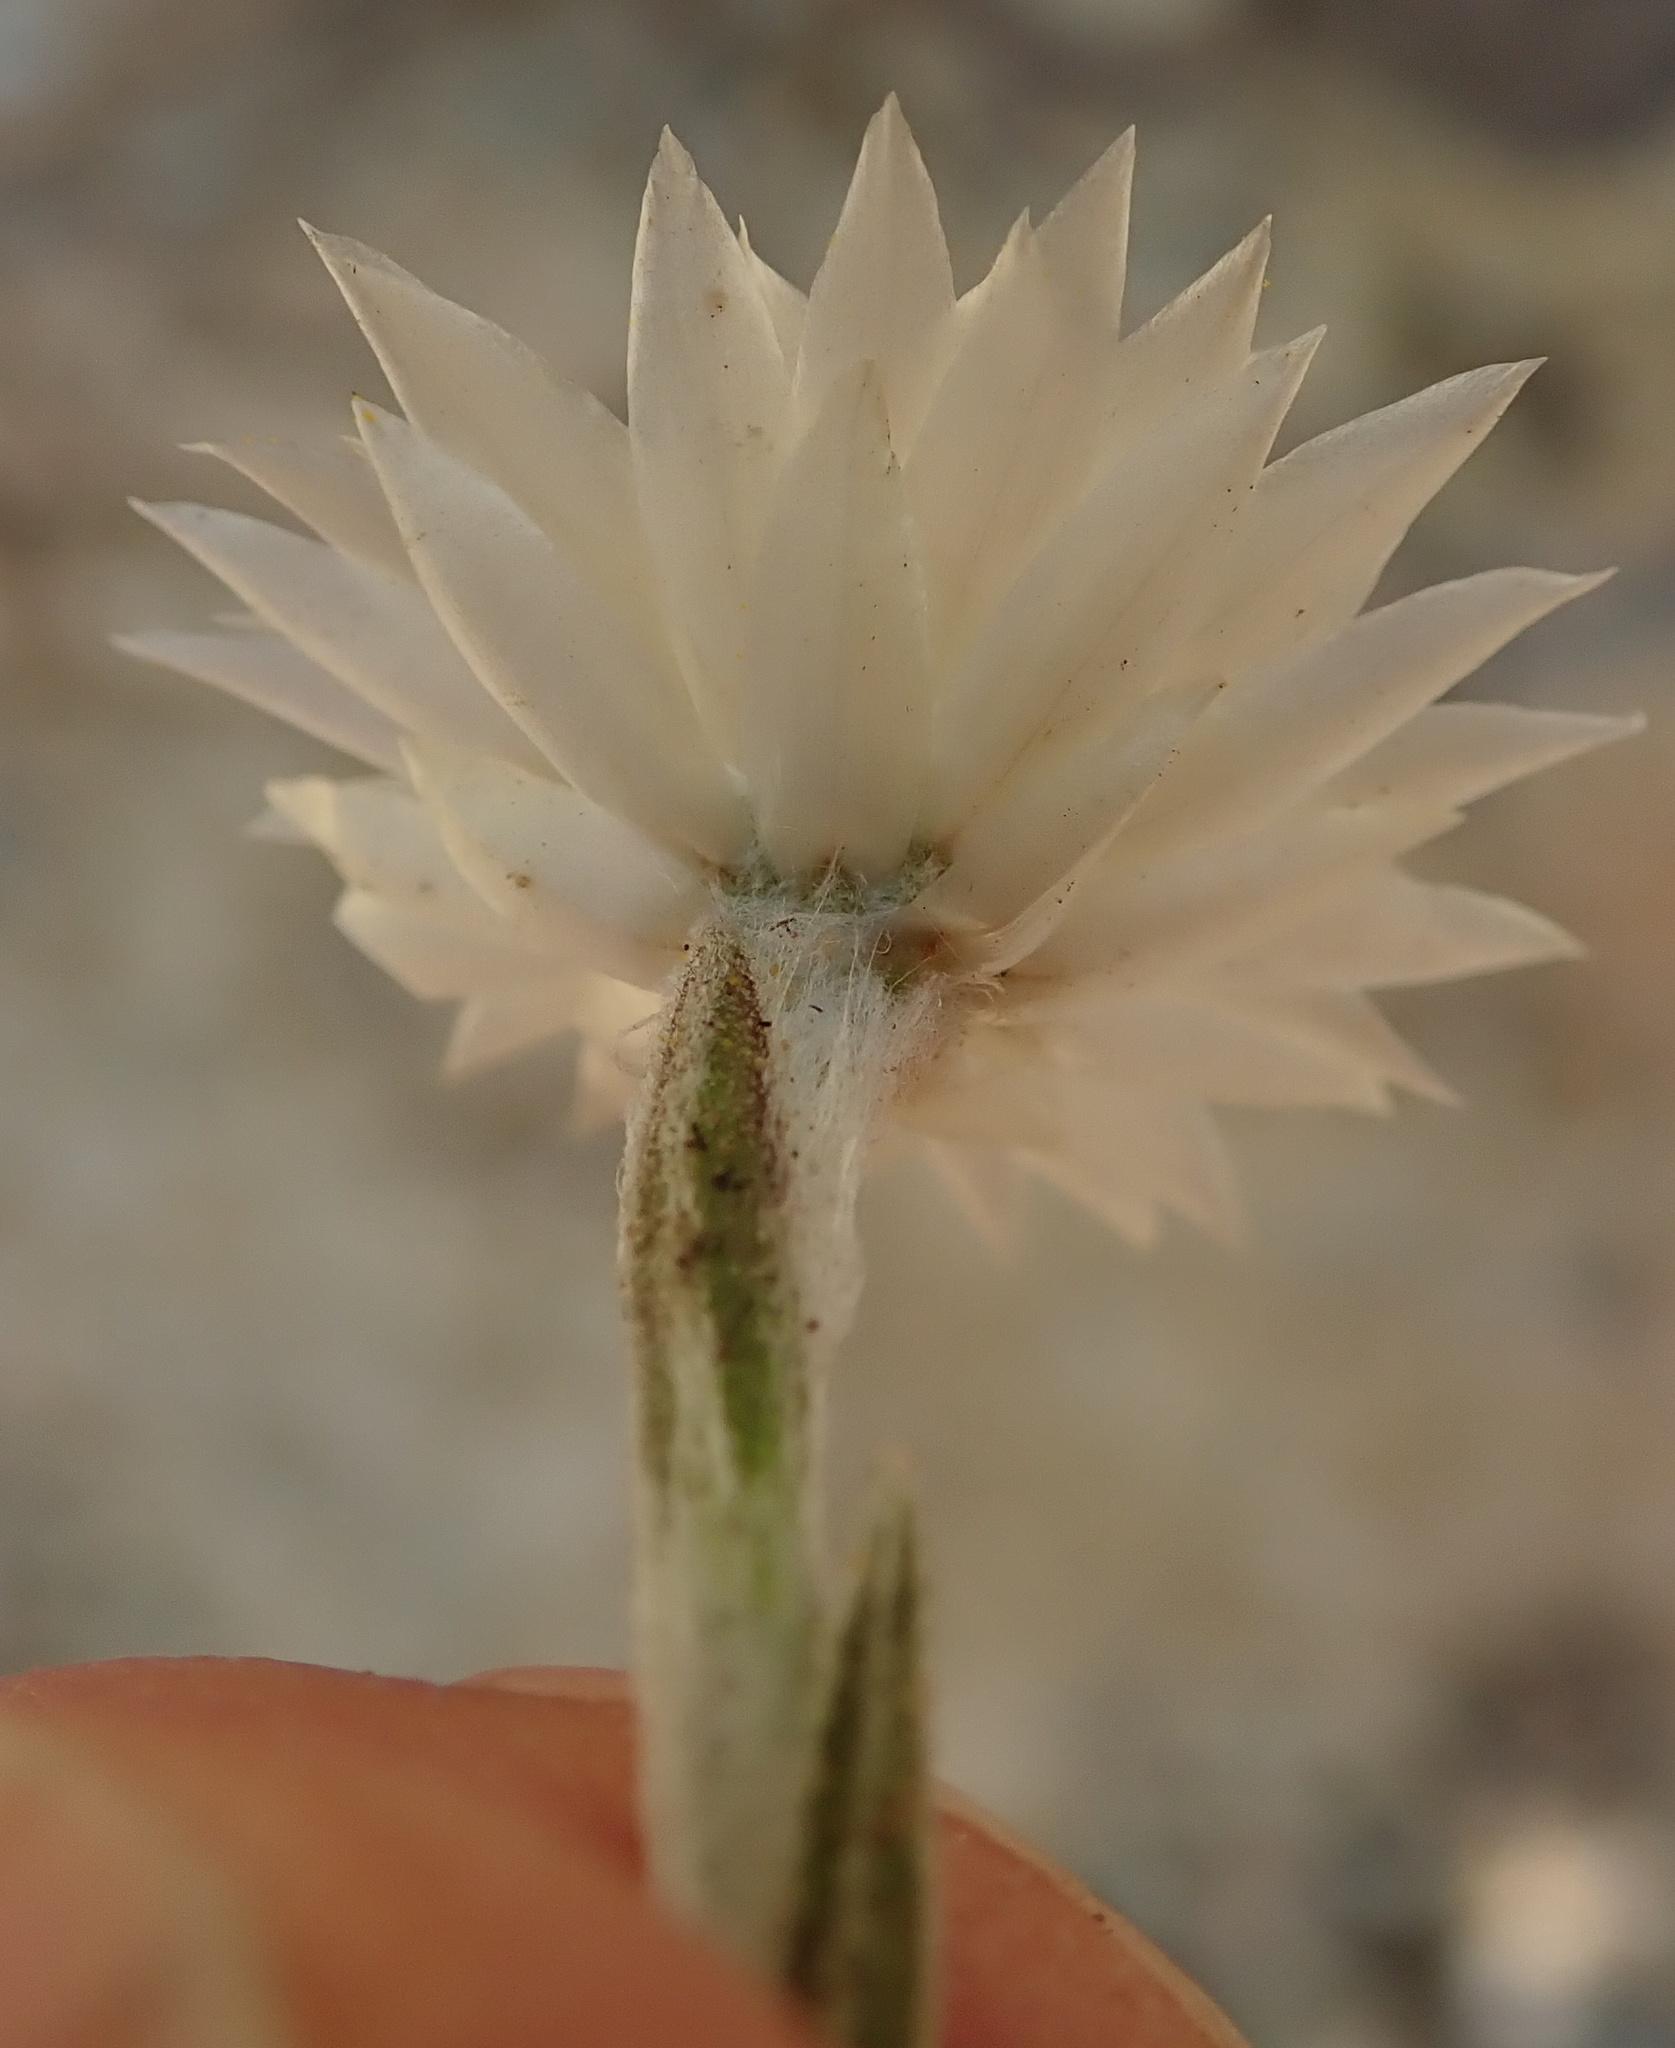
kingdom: Plantae
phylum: Tracheophyta
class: Magnoliopsida
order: Asterales
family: Asteraceae
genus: Helichrysum
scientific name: Helichrysum marginatum
